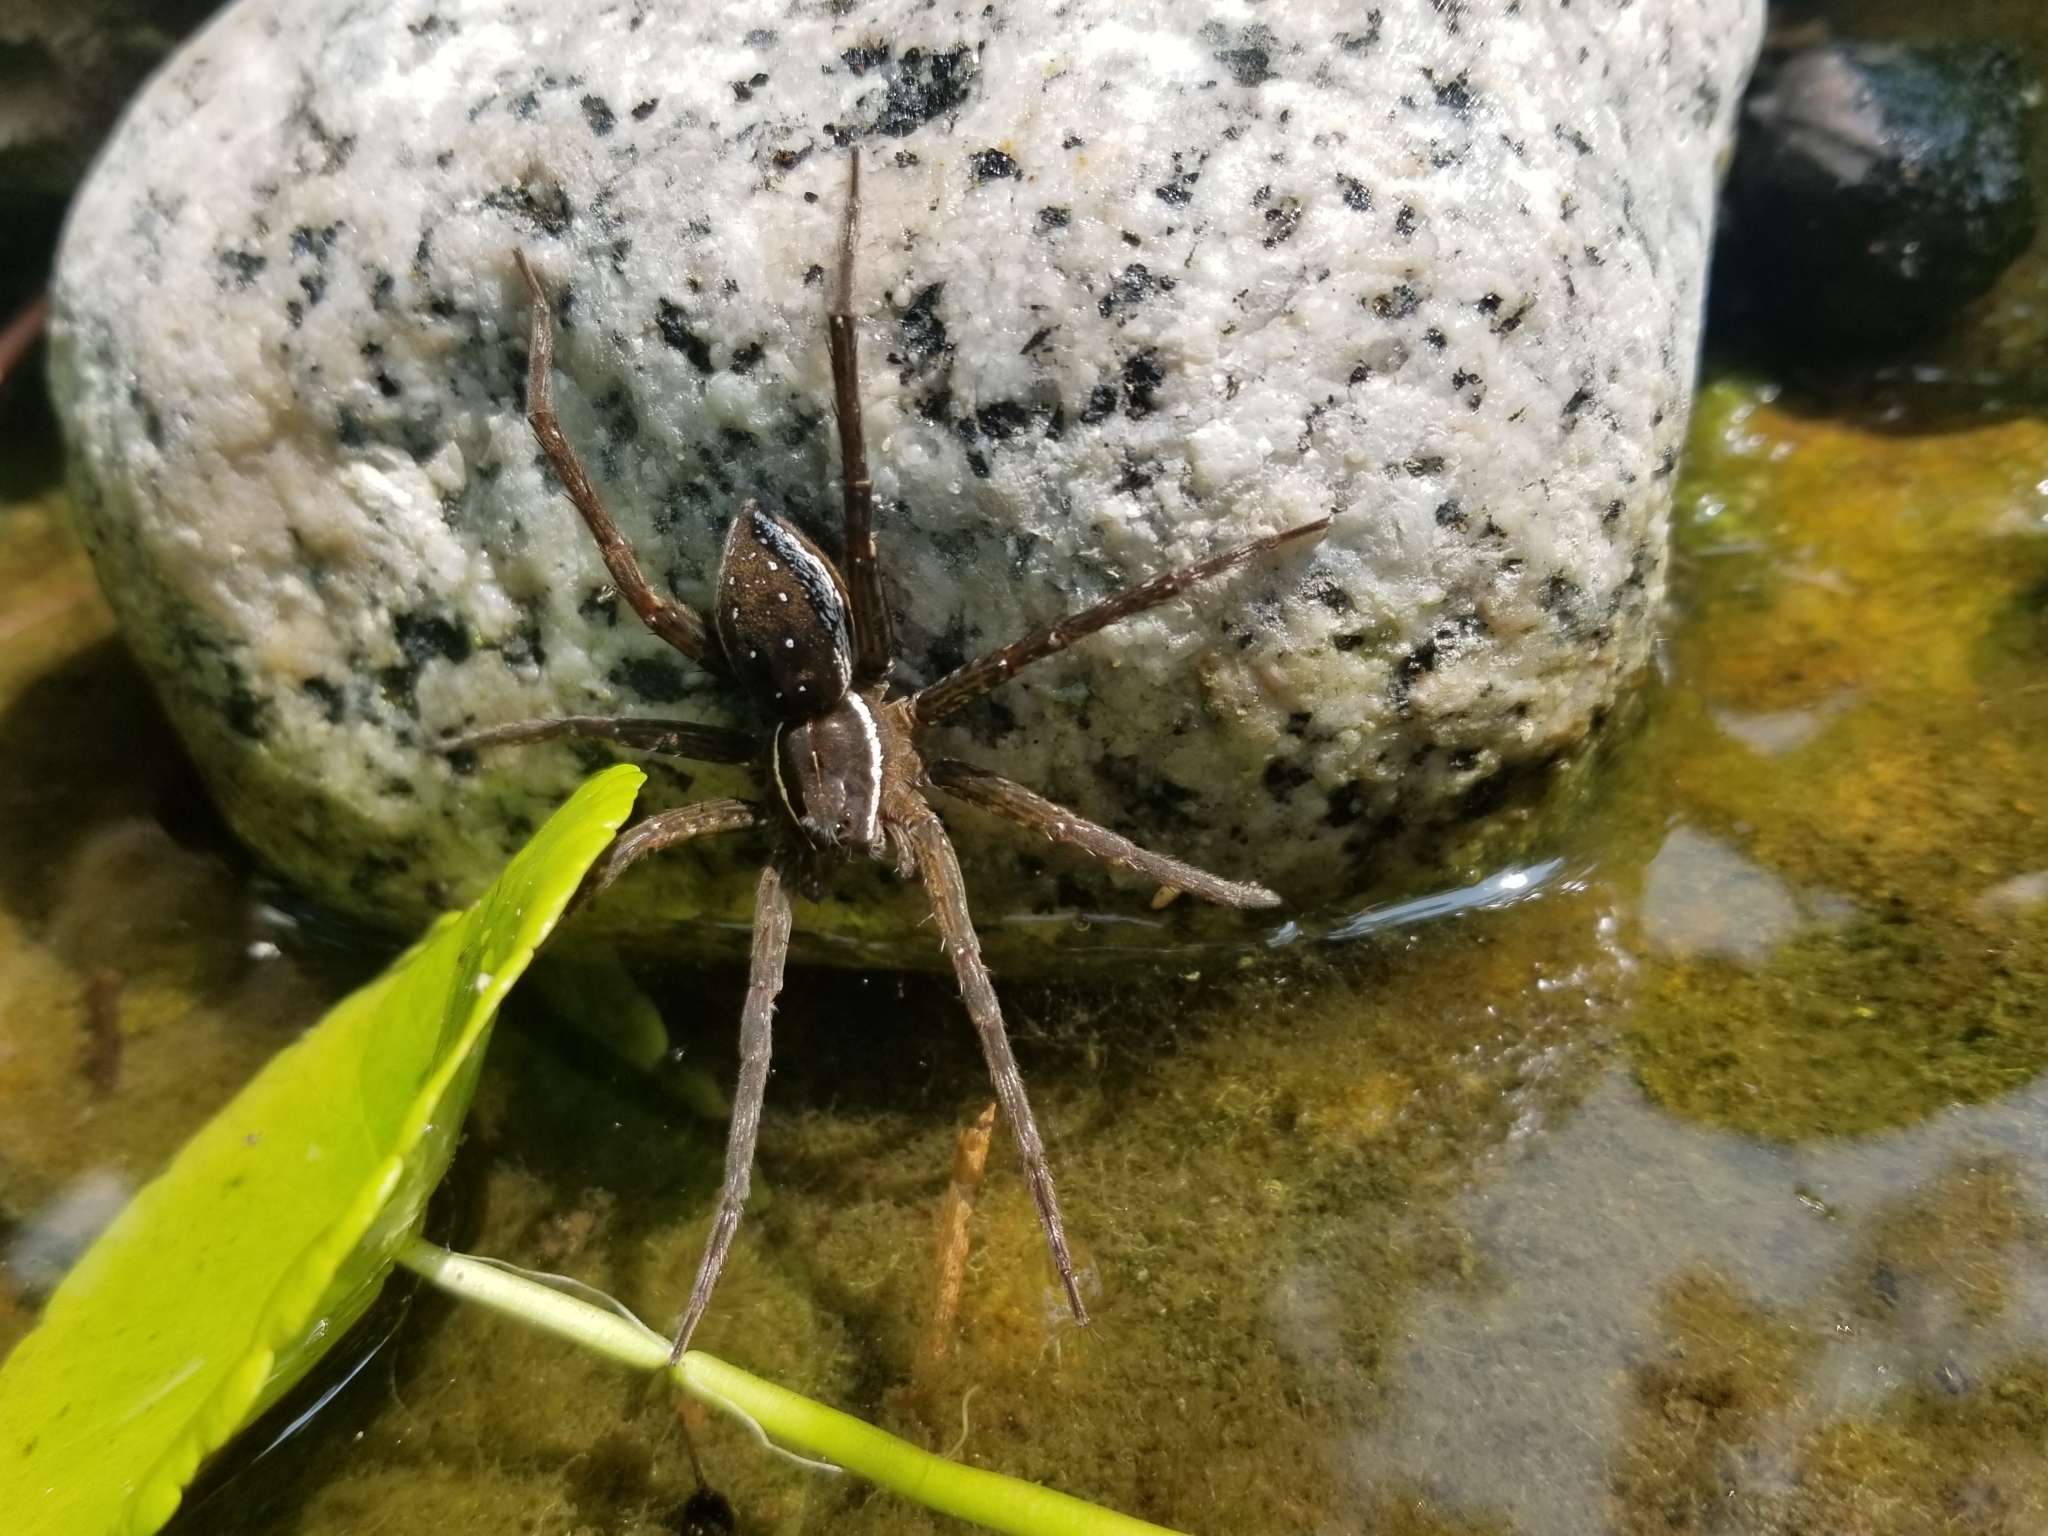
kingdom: Animalia
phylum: Arthropoda
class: Arachnida
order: Araneae
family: Pisauridae
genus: Dolomedes
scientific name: Dolomedes triton
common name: Six-spotted fishing spider
